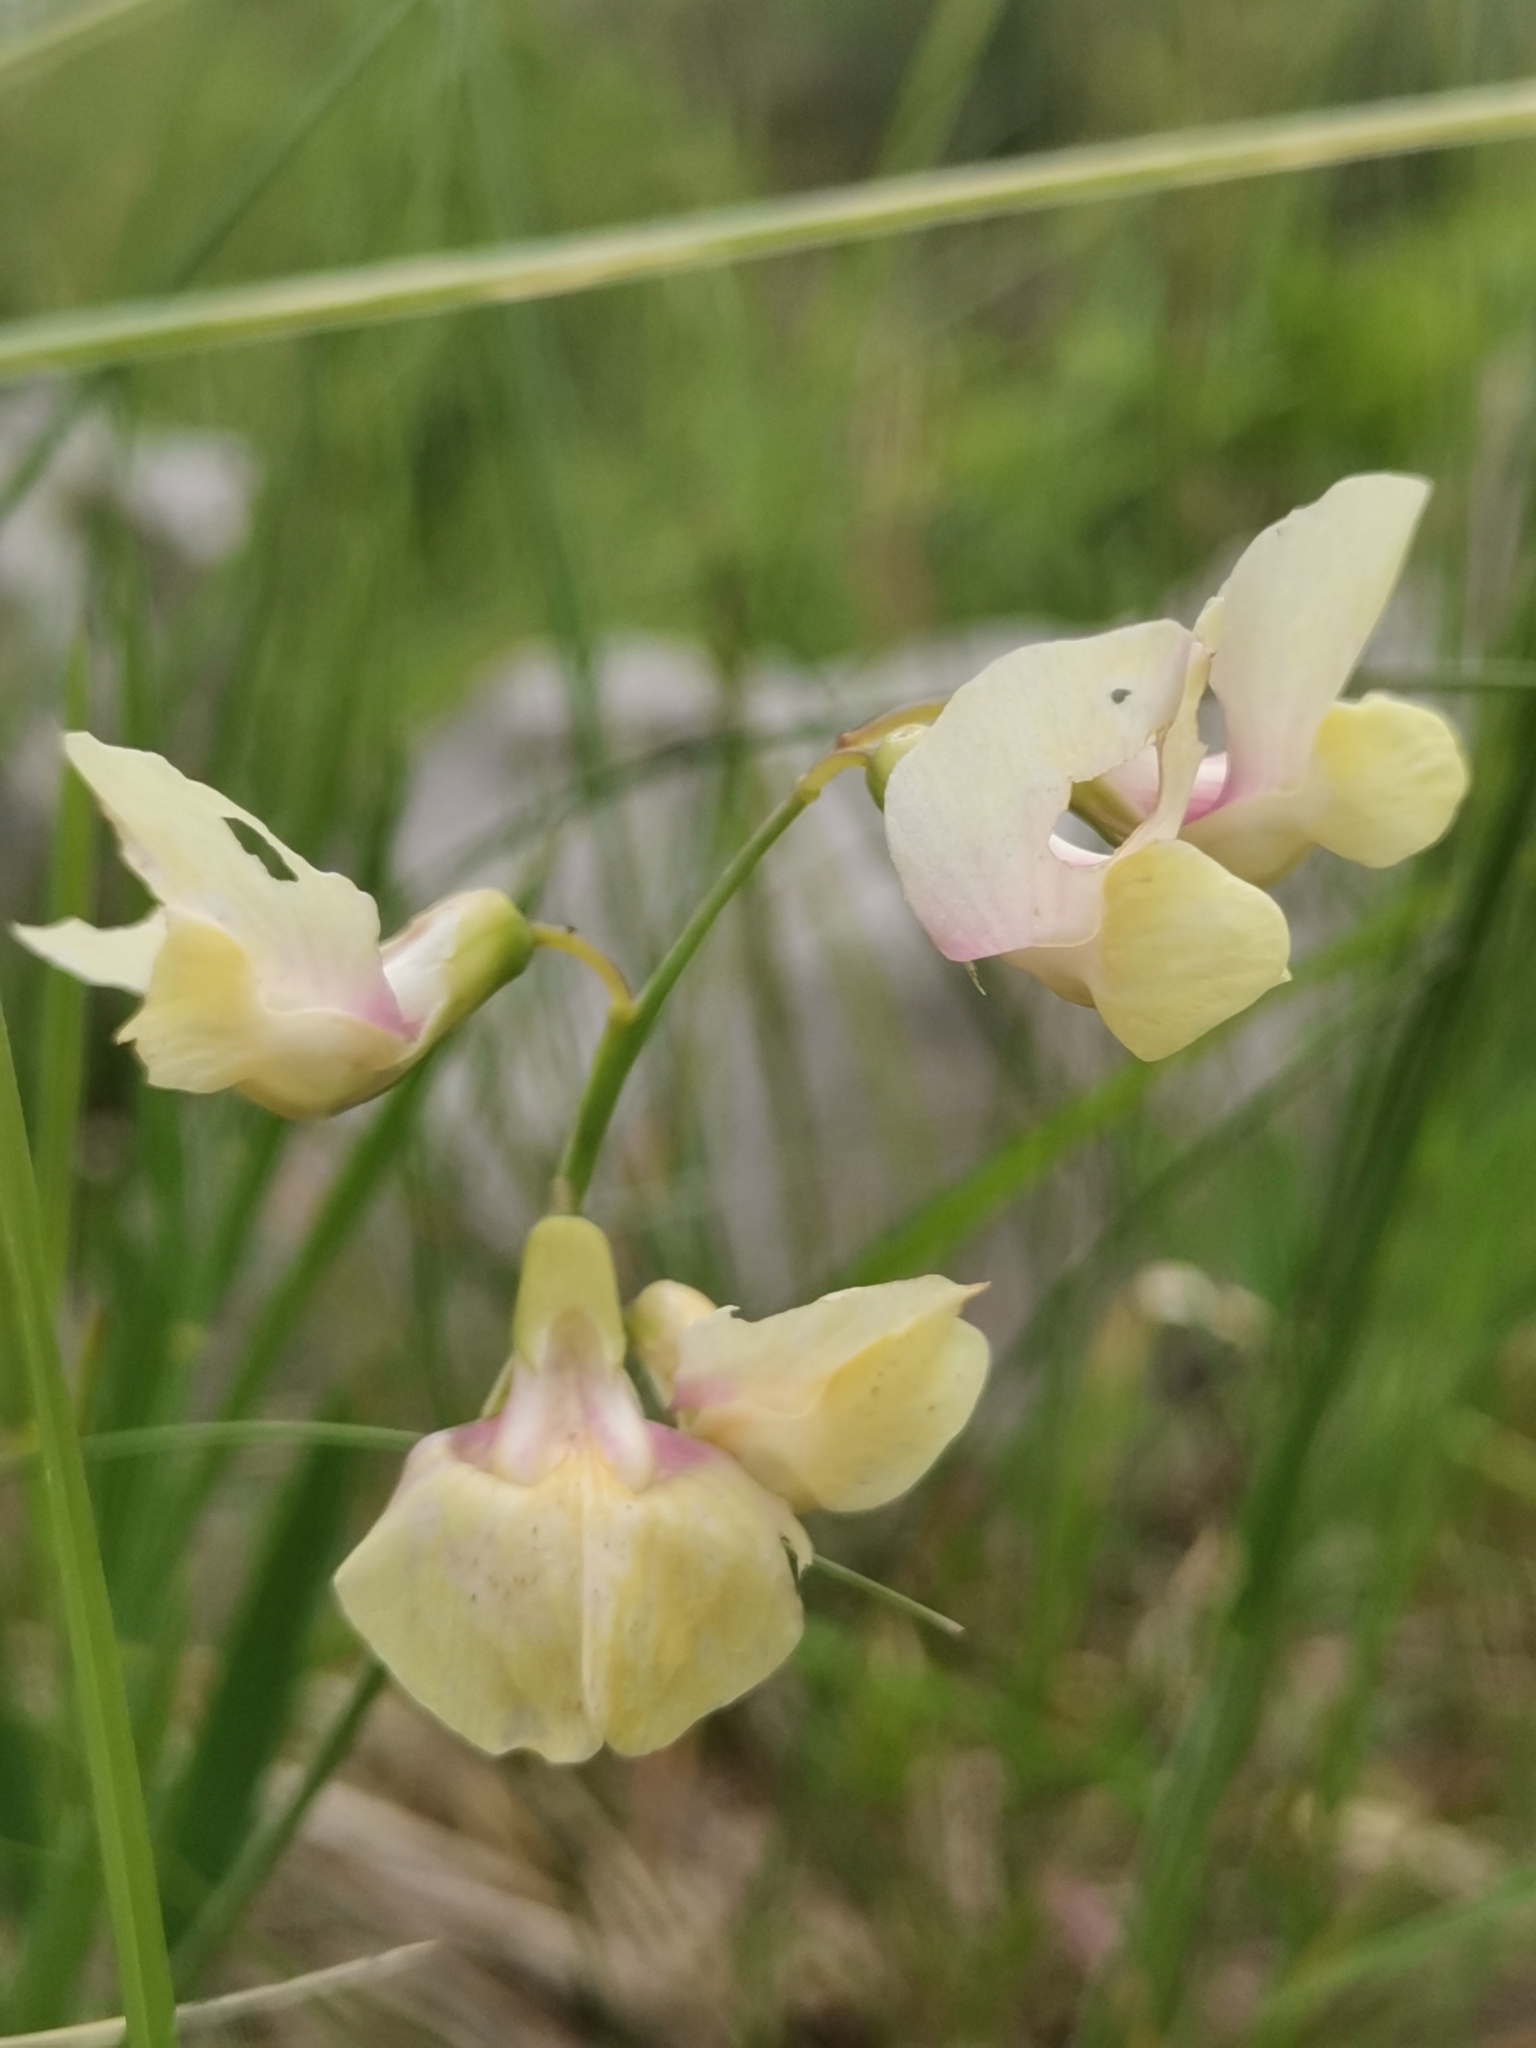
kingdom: Plantae
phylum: Tracheophyta
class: Magnoliopsida
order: Fabales
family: Fabaceae
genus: Lathyrus
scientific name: Lathyrus pannonicus
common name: Pea
